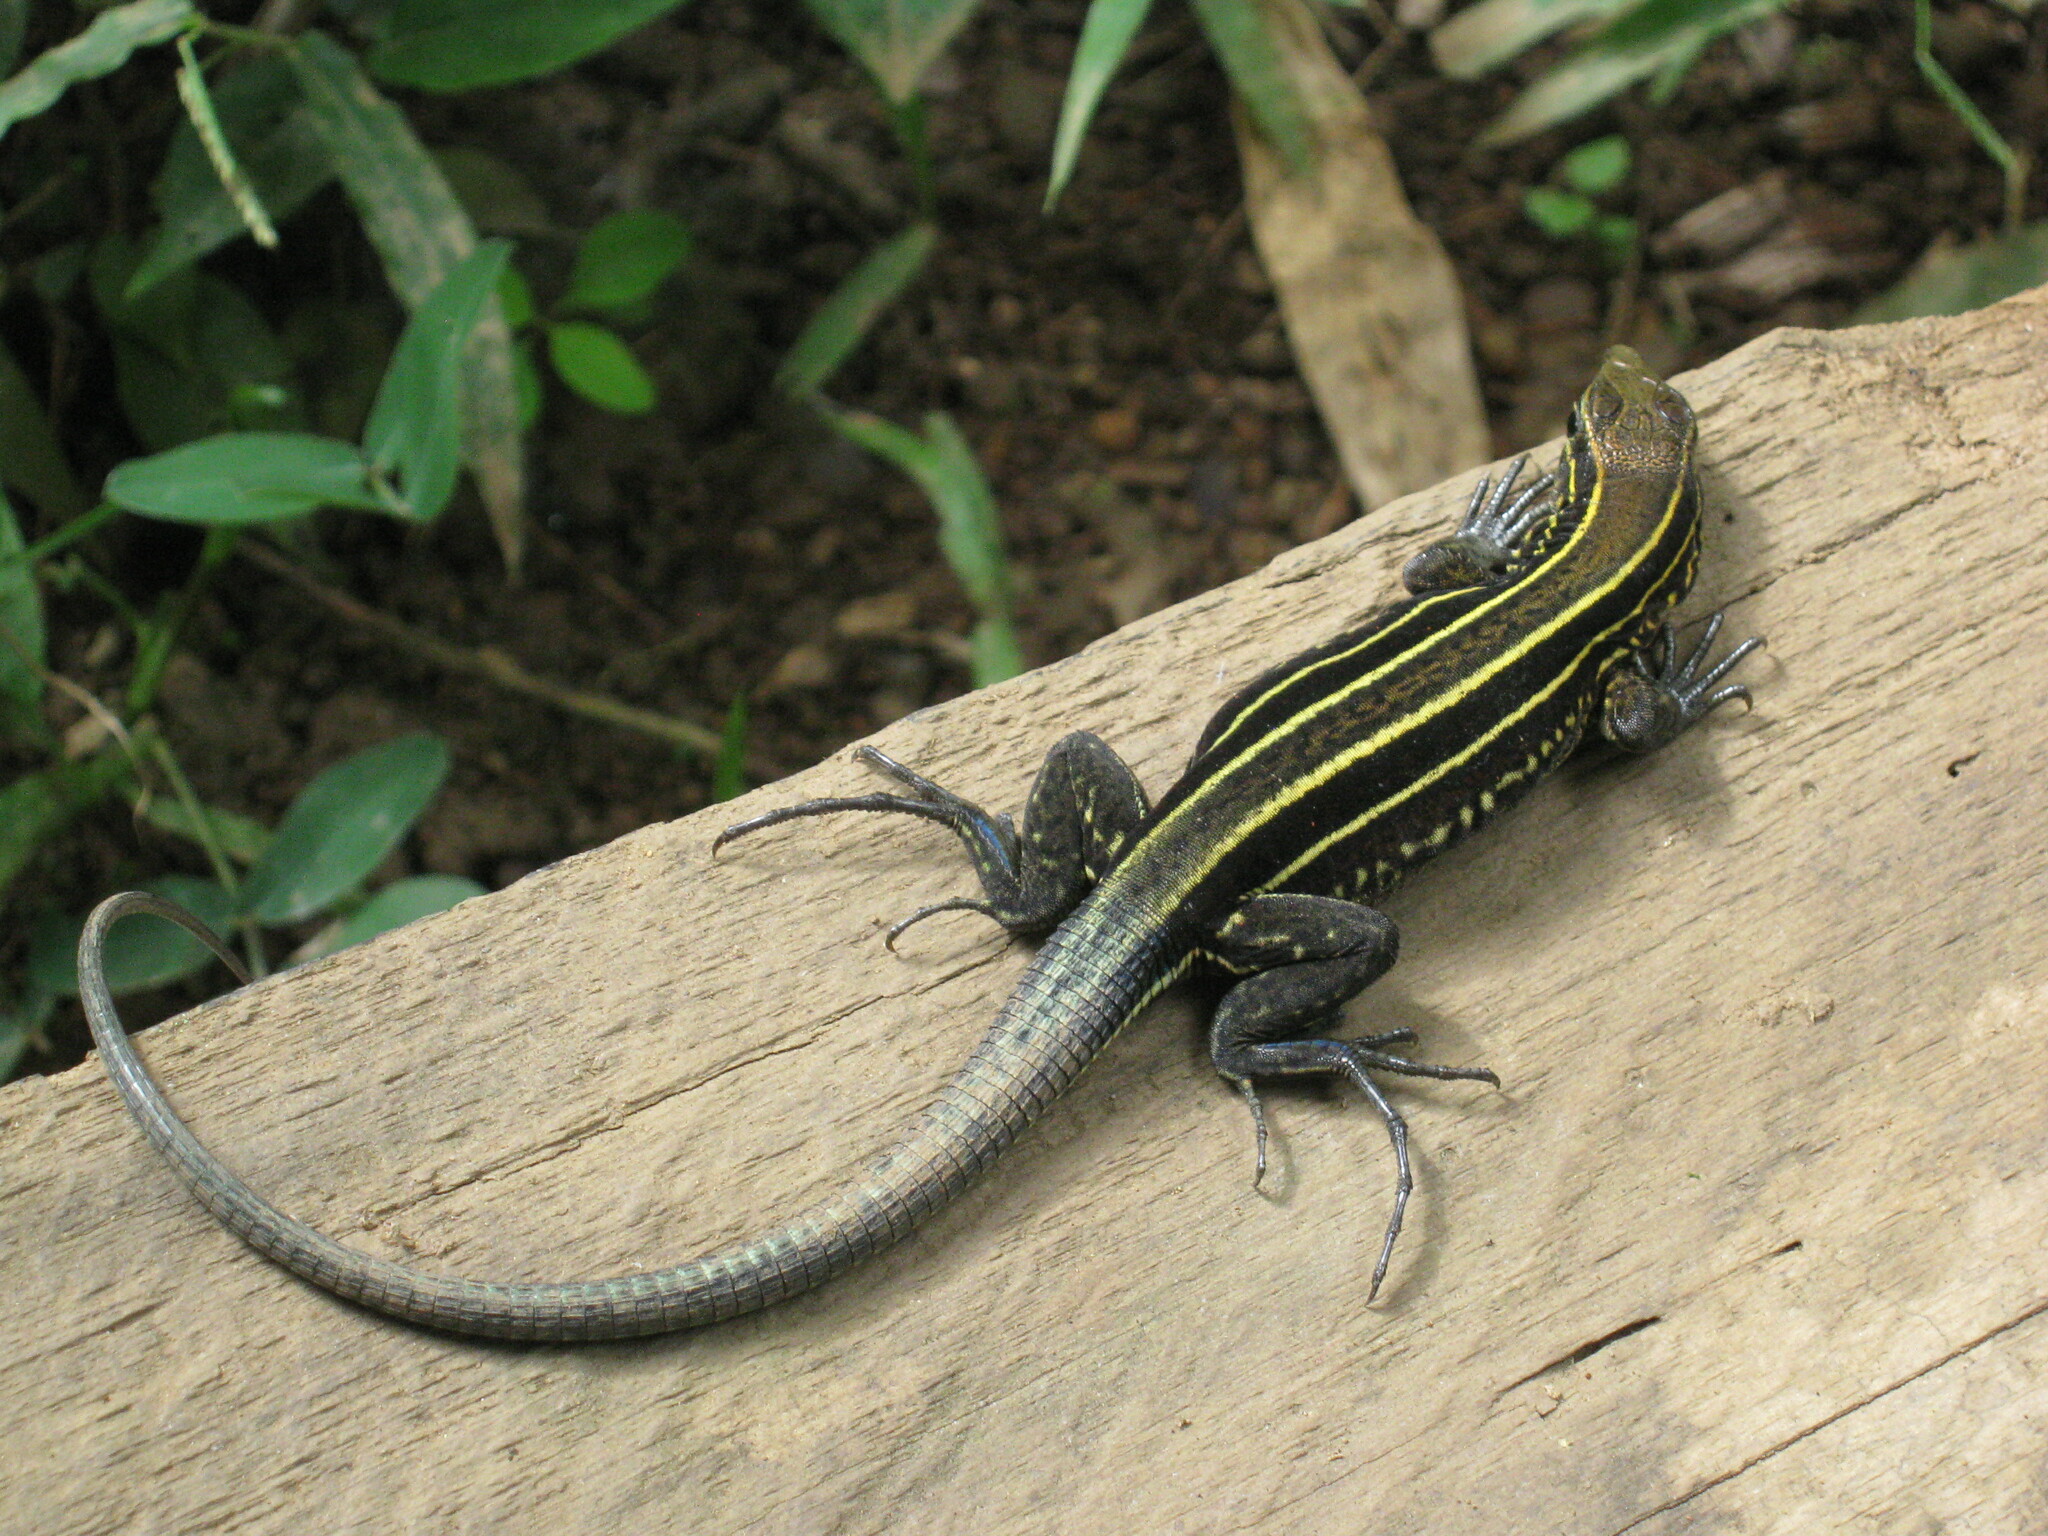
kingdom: Animalia
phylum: Chordata
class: Squamata
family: Teiidae
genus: Holcosus
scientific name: Holcosus quadrilineatus
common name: Four-lined ameiva
